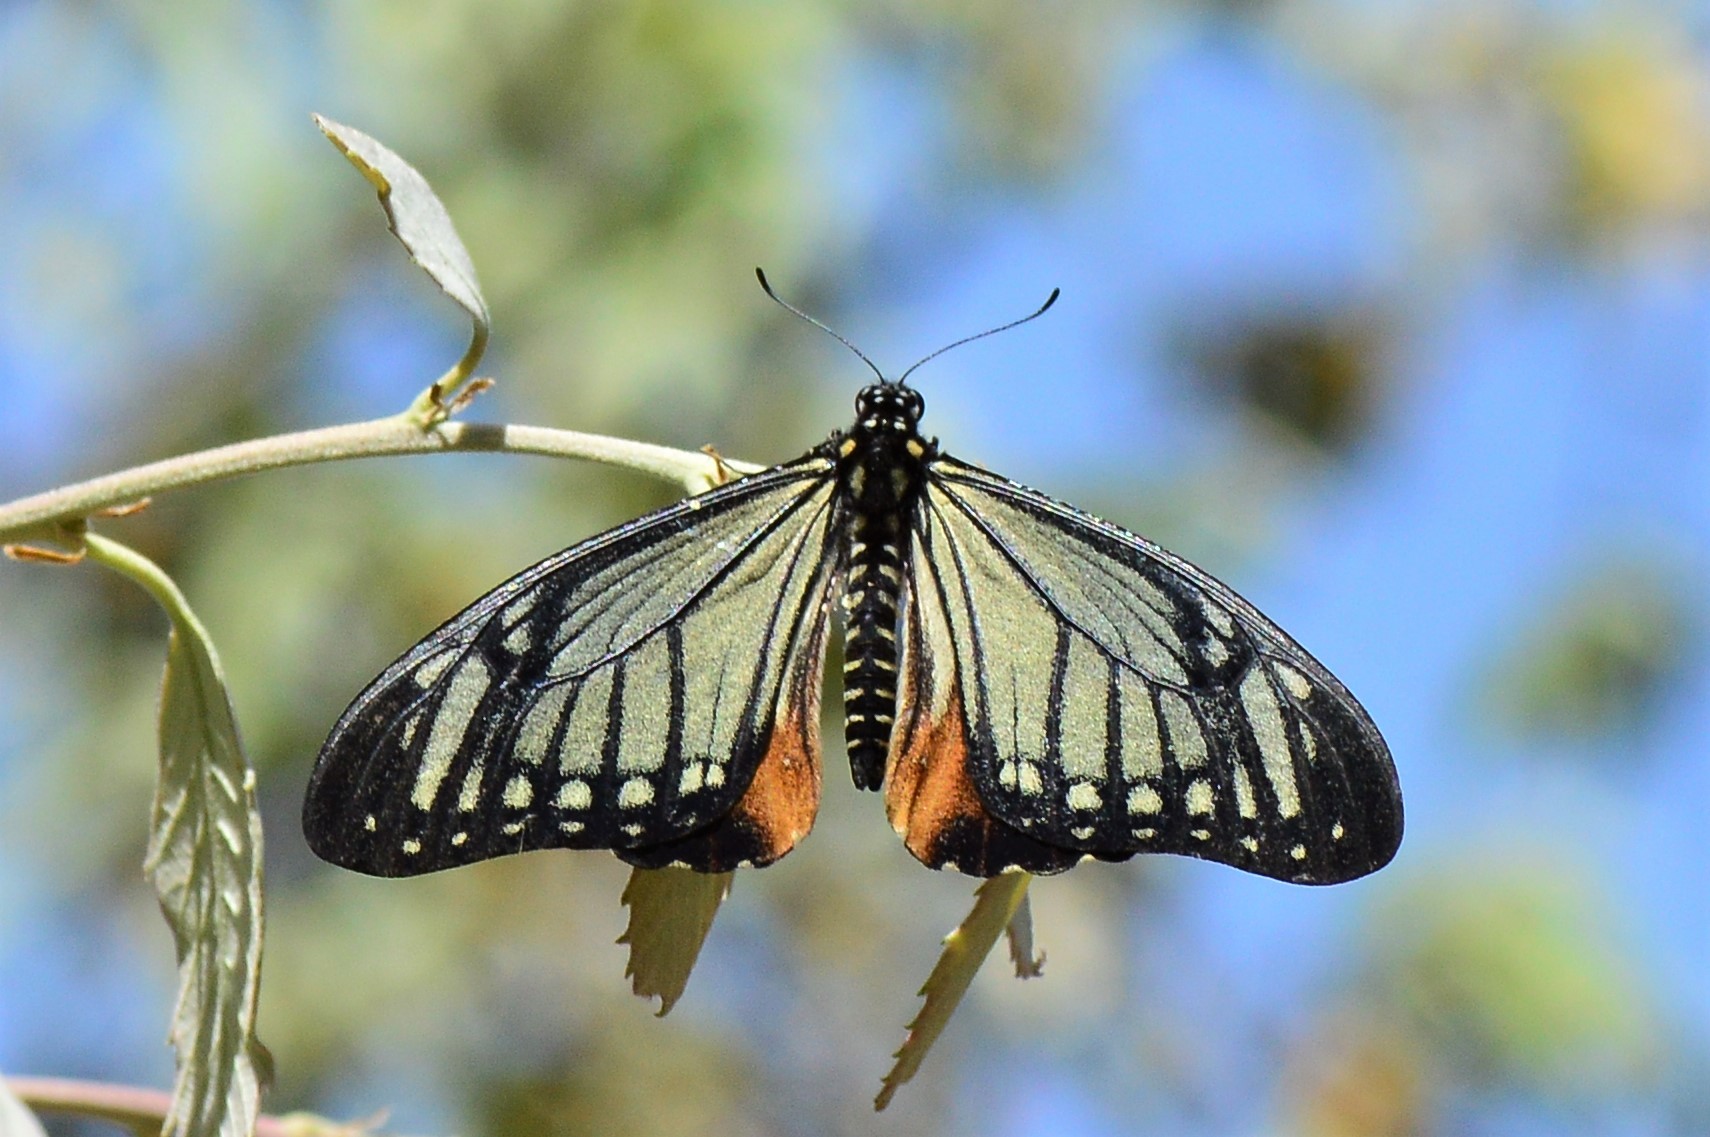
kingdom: Animalia
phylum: Arthropoda
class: Insecta
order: Lepidoptera
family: Lycaenidae
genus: Plebicula
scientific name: Plebicula escheri
